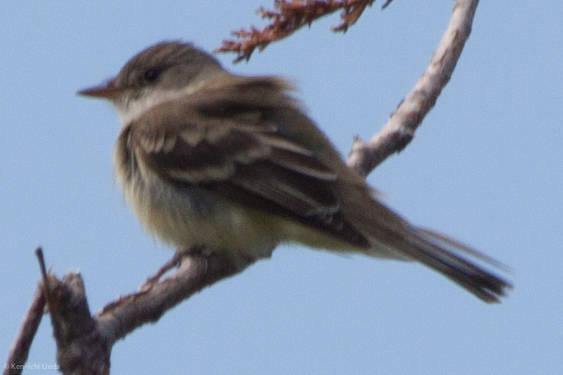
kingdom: Animalia
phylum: Chordata
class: Aves
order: Passeriformes
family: Tyrannidae
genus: Empidonax
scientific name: Empidonax
